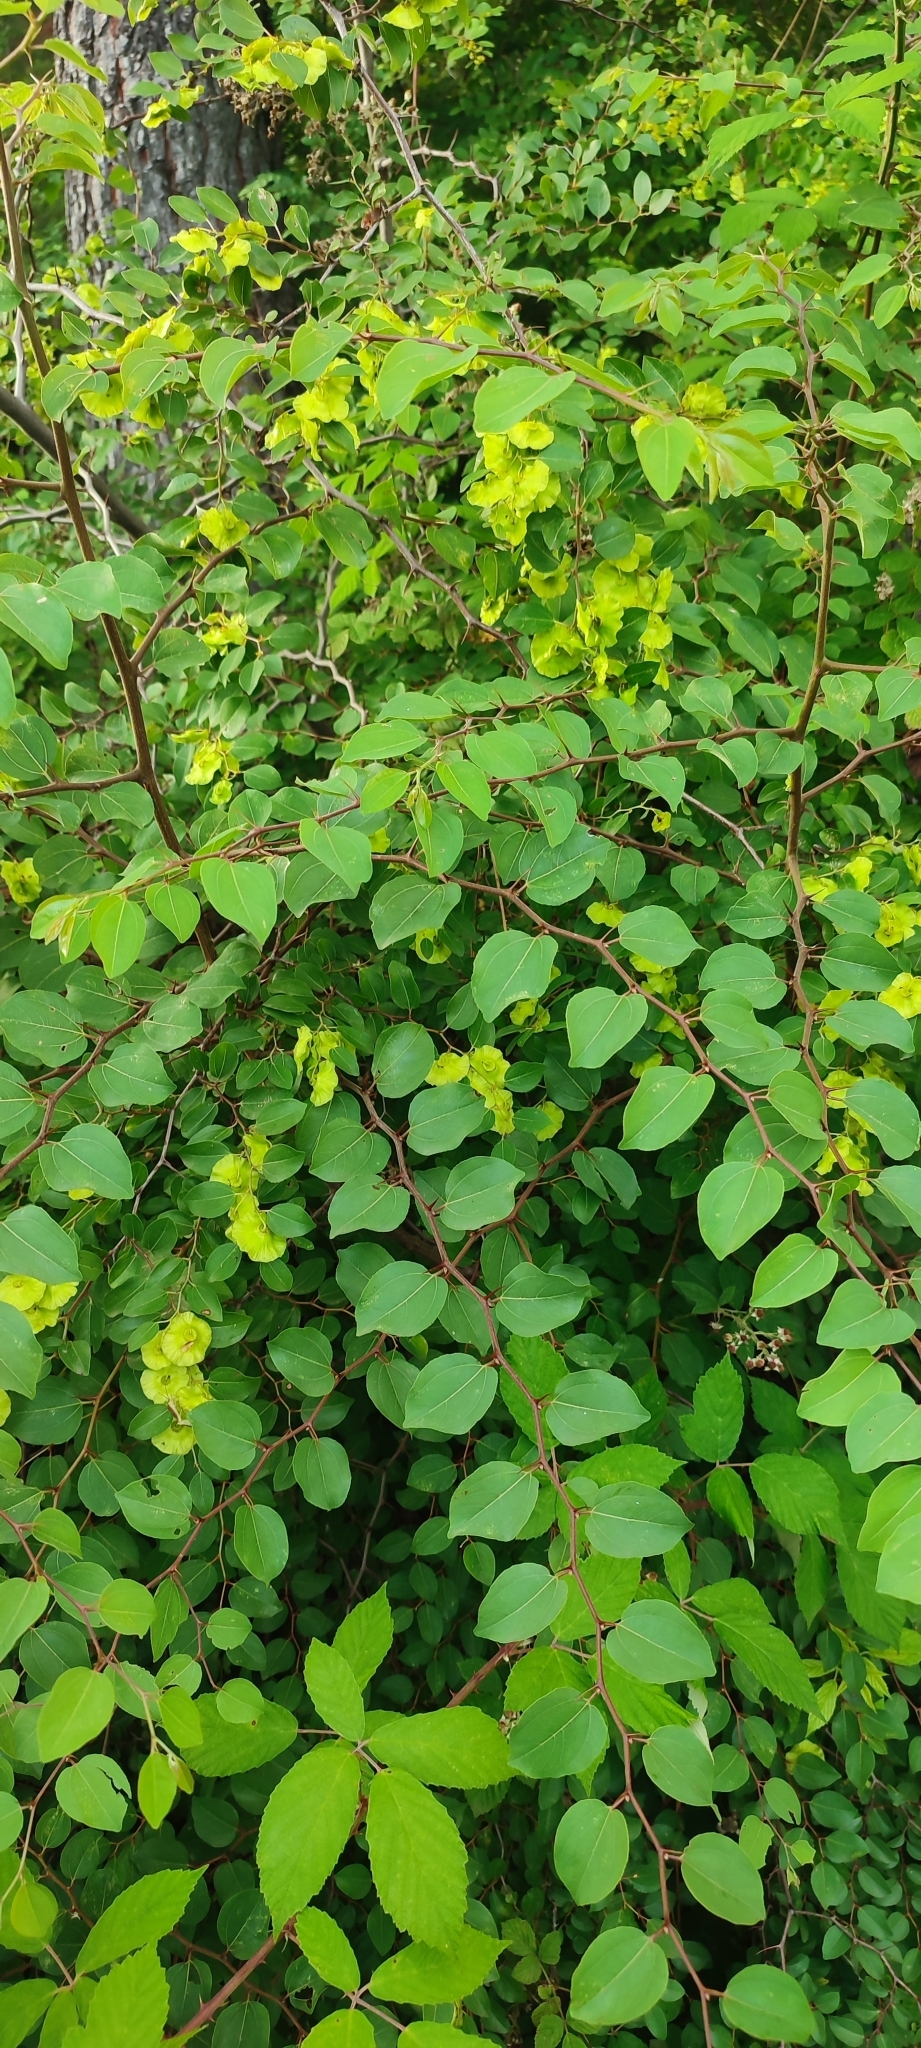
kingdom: Plantae
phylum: Tracheophyta
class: Magnoliopsida
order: Rosales
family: Rhamnaceae
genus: Paliurus
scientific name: Paliurus spina-christi
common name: Jeruselem thorn
